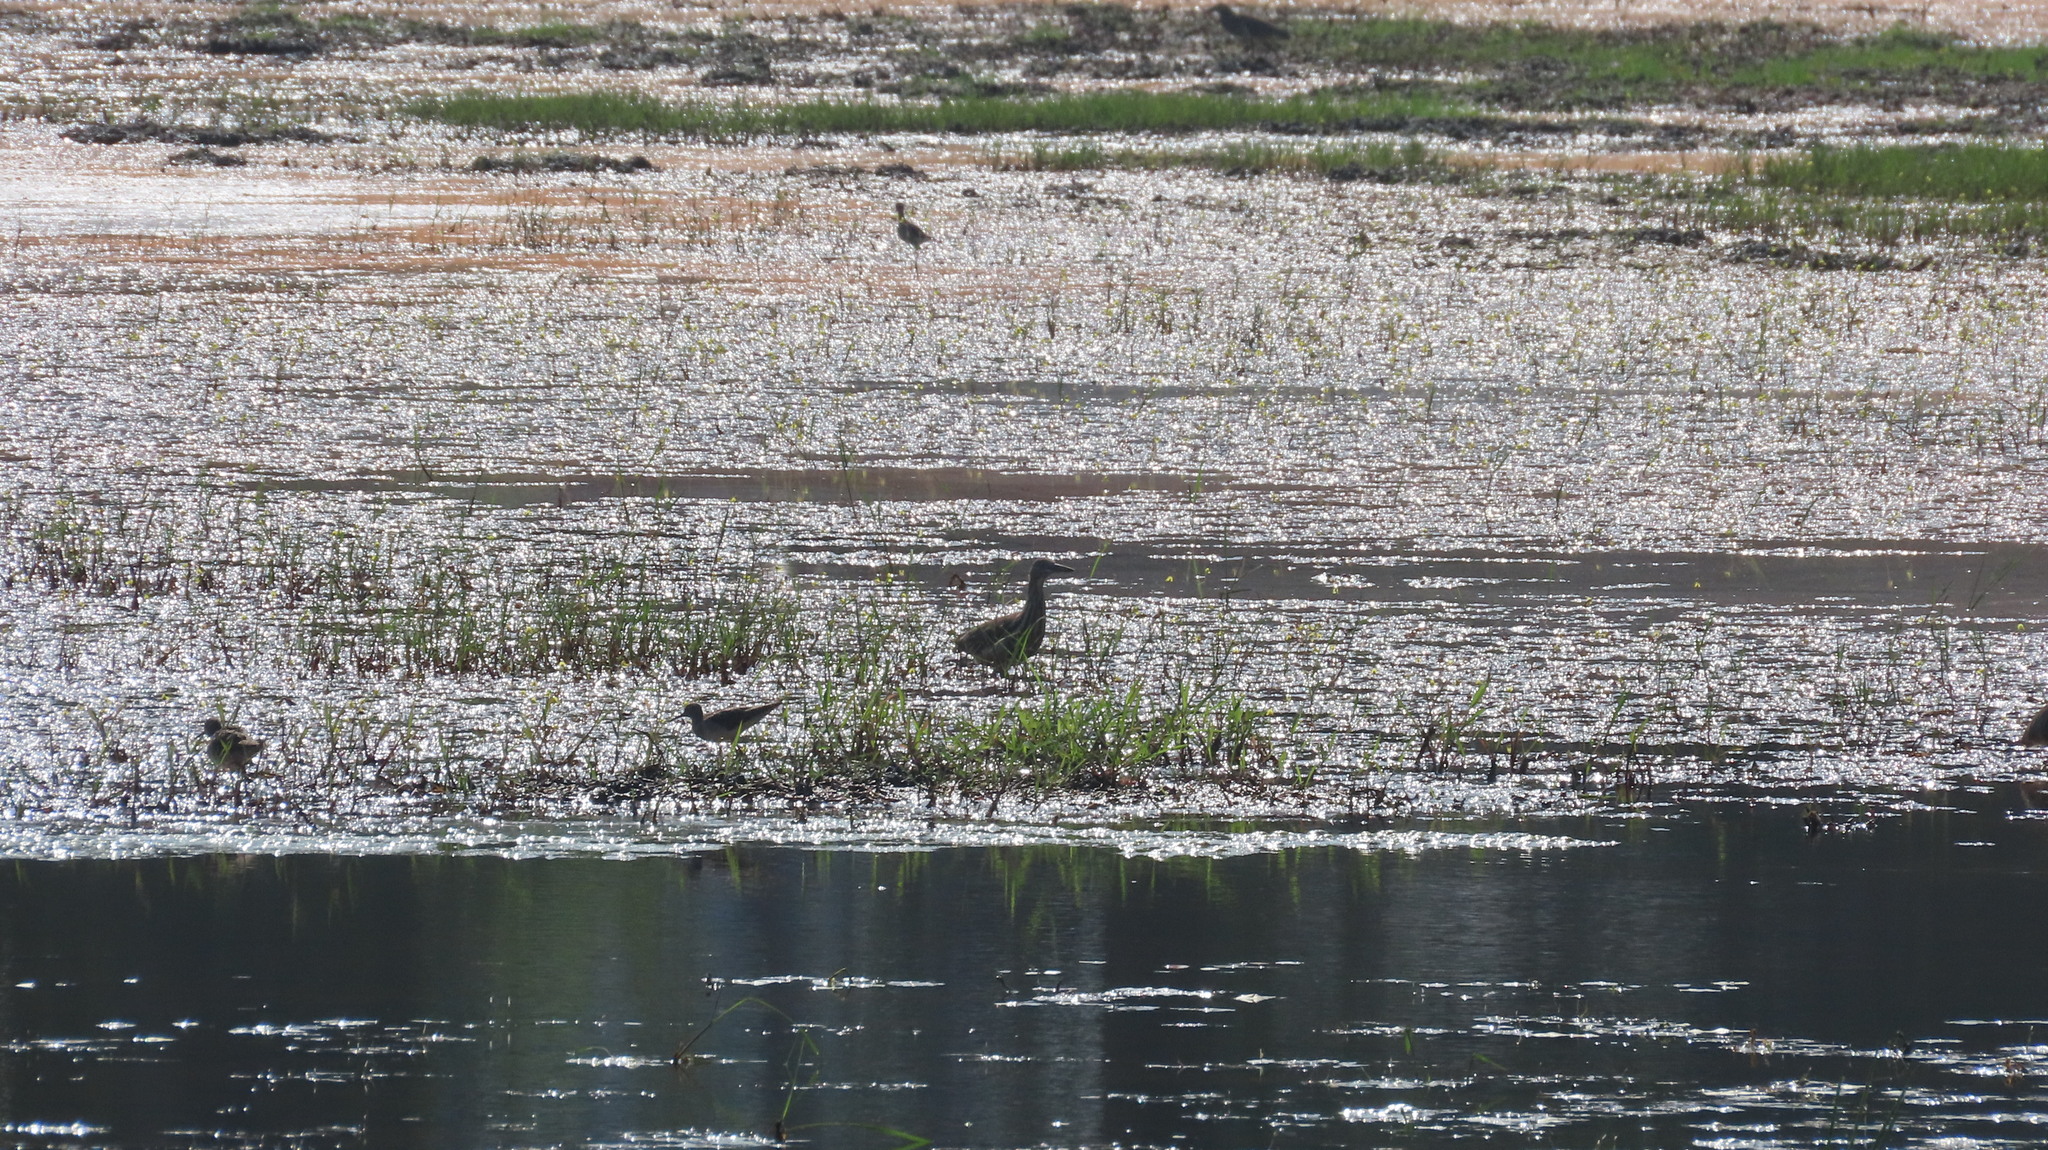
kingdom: Animalia
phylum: Chordata
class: Aves
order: Charadriiformes
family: Scolopacidae
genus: Tringa
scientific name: Tringa glareola
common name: Wood sandpiper
